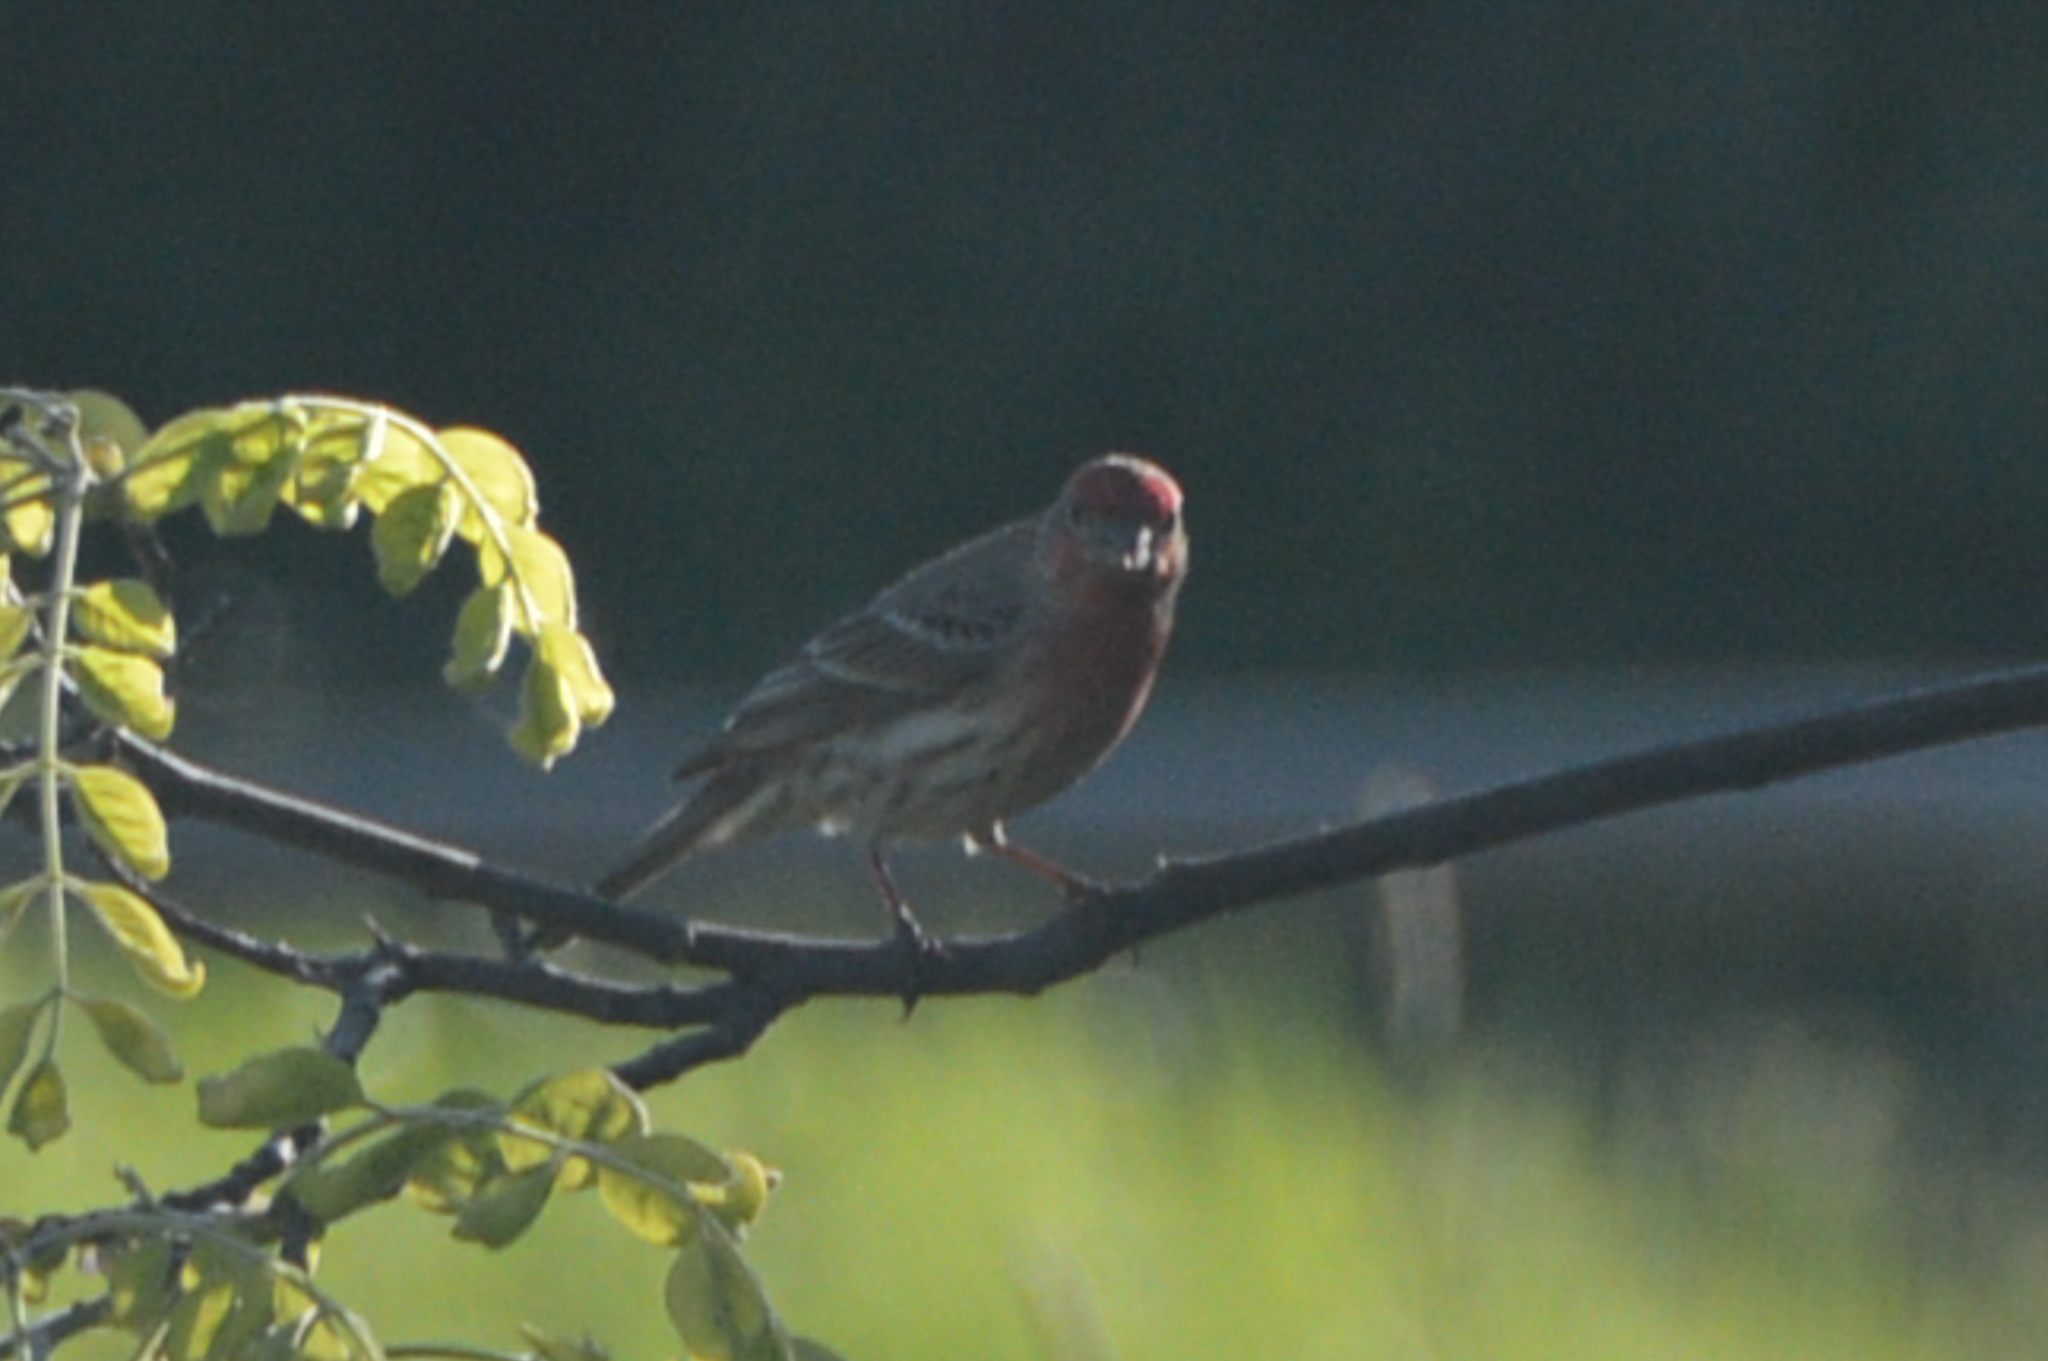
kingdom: Animalia
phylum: Chordata
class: Aves
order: Passeriformes
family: Fringillidae
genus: Haemorhous
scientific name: Haemorhous mexicanus
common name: House finch
